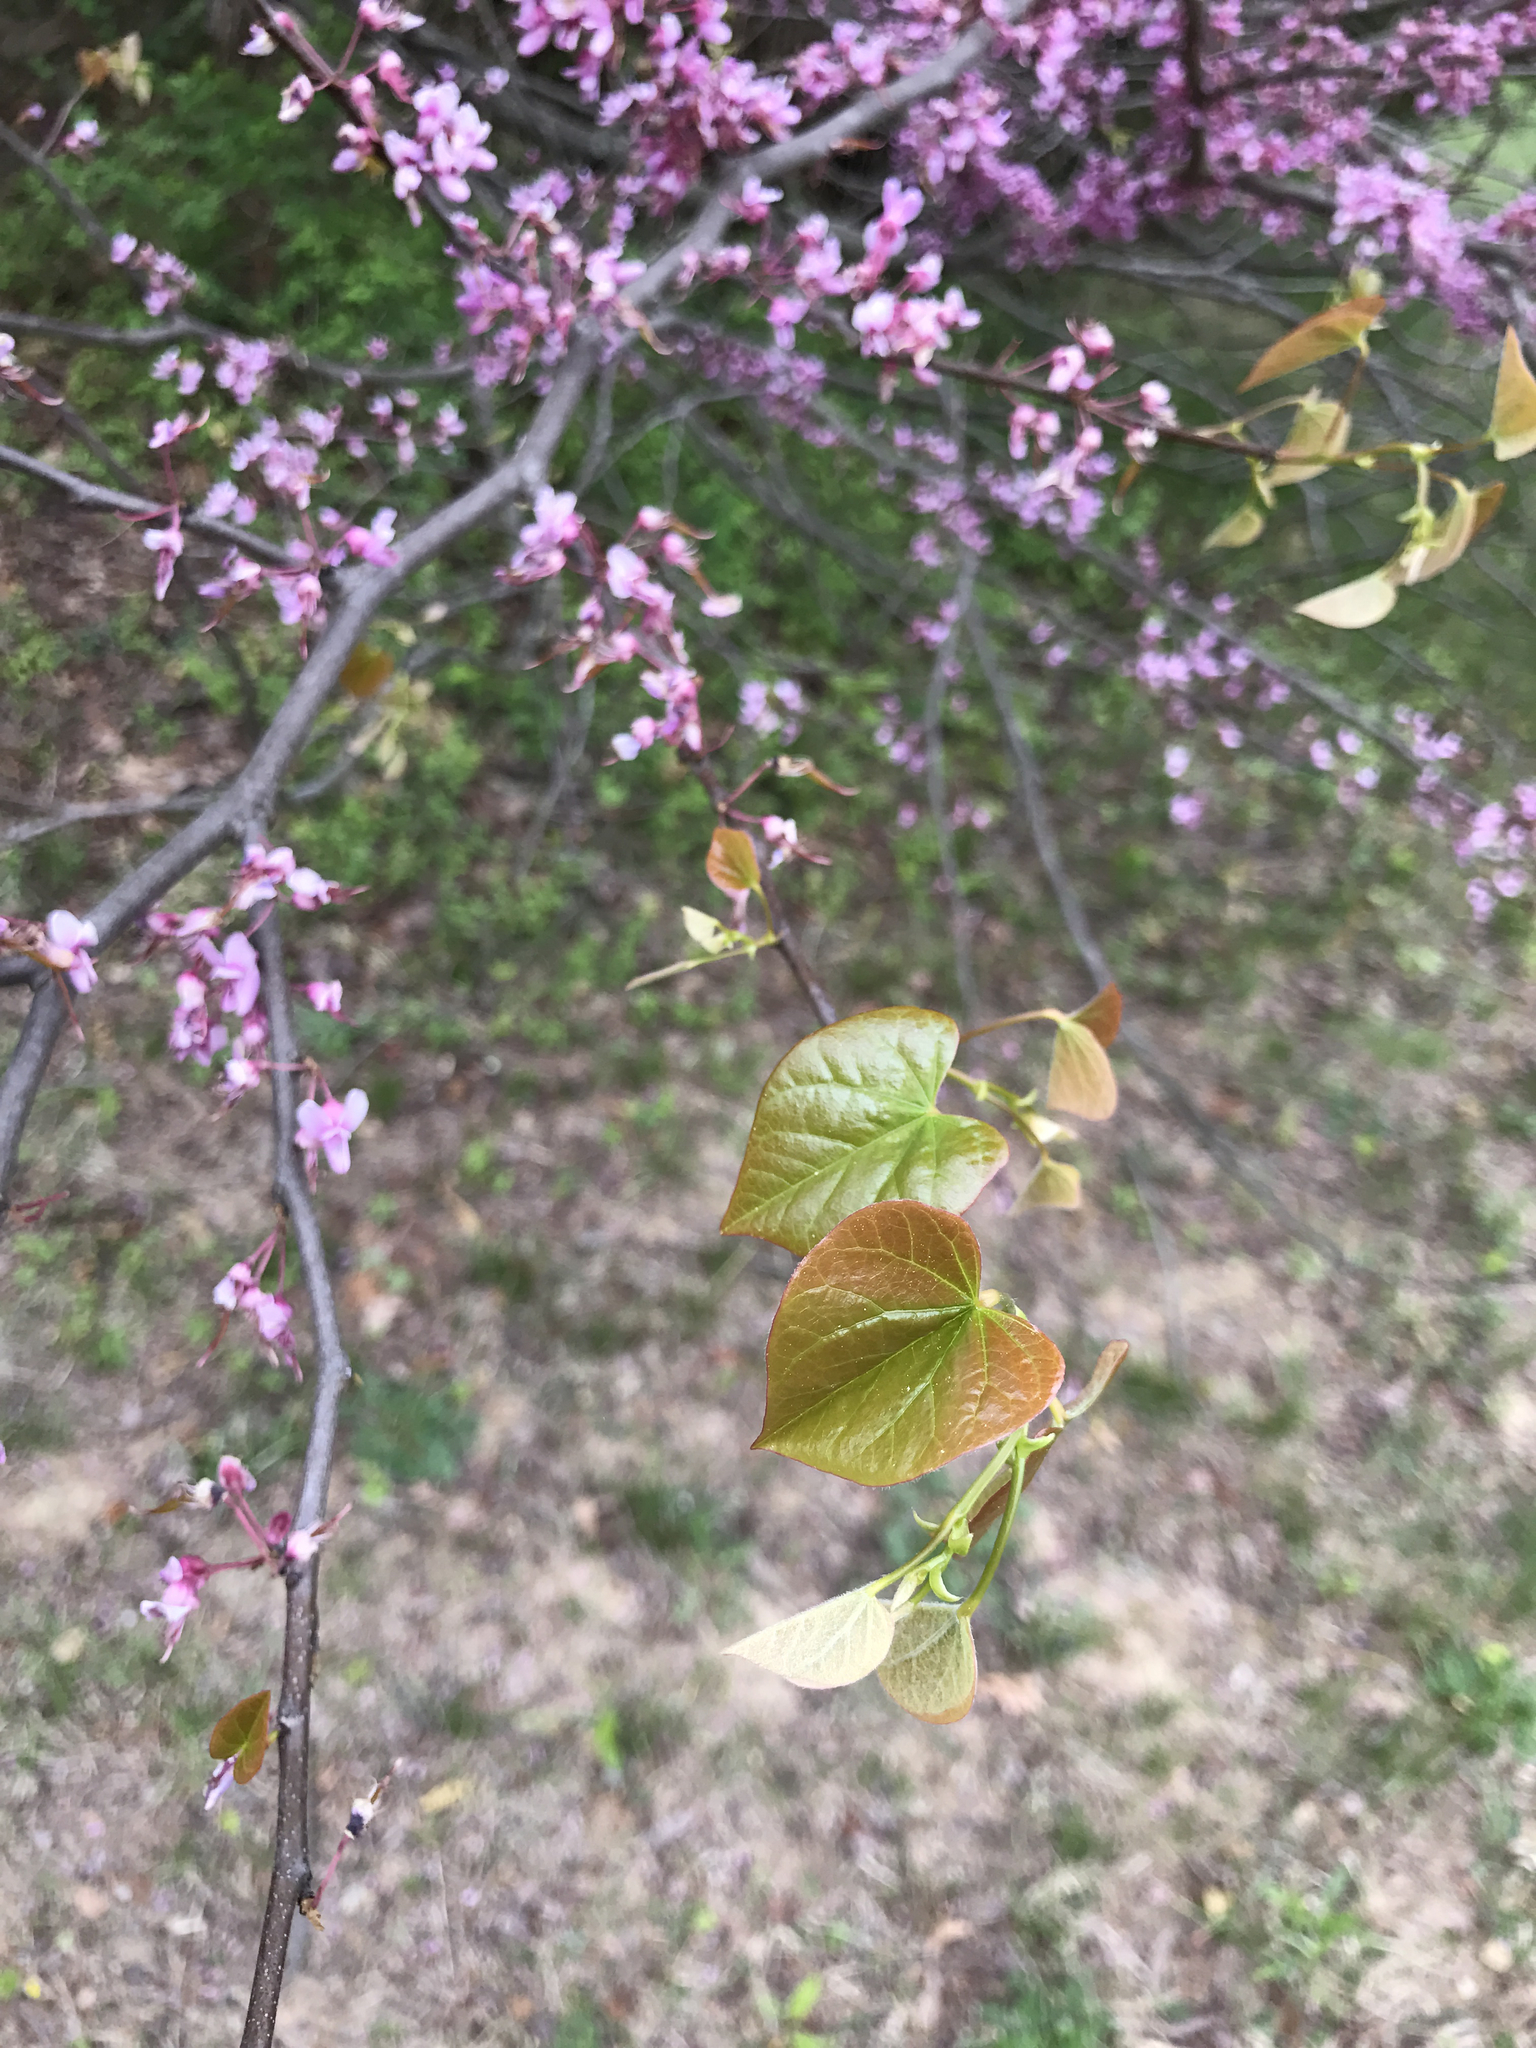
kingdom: Plantae
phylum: Tracheophyta
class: Magnoliopsida
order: Fabales
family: Fabaceae
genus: Cercis
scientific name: Cercis canadensis
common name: Eastern redbud
